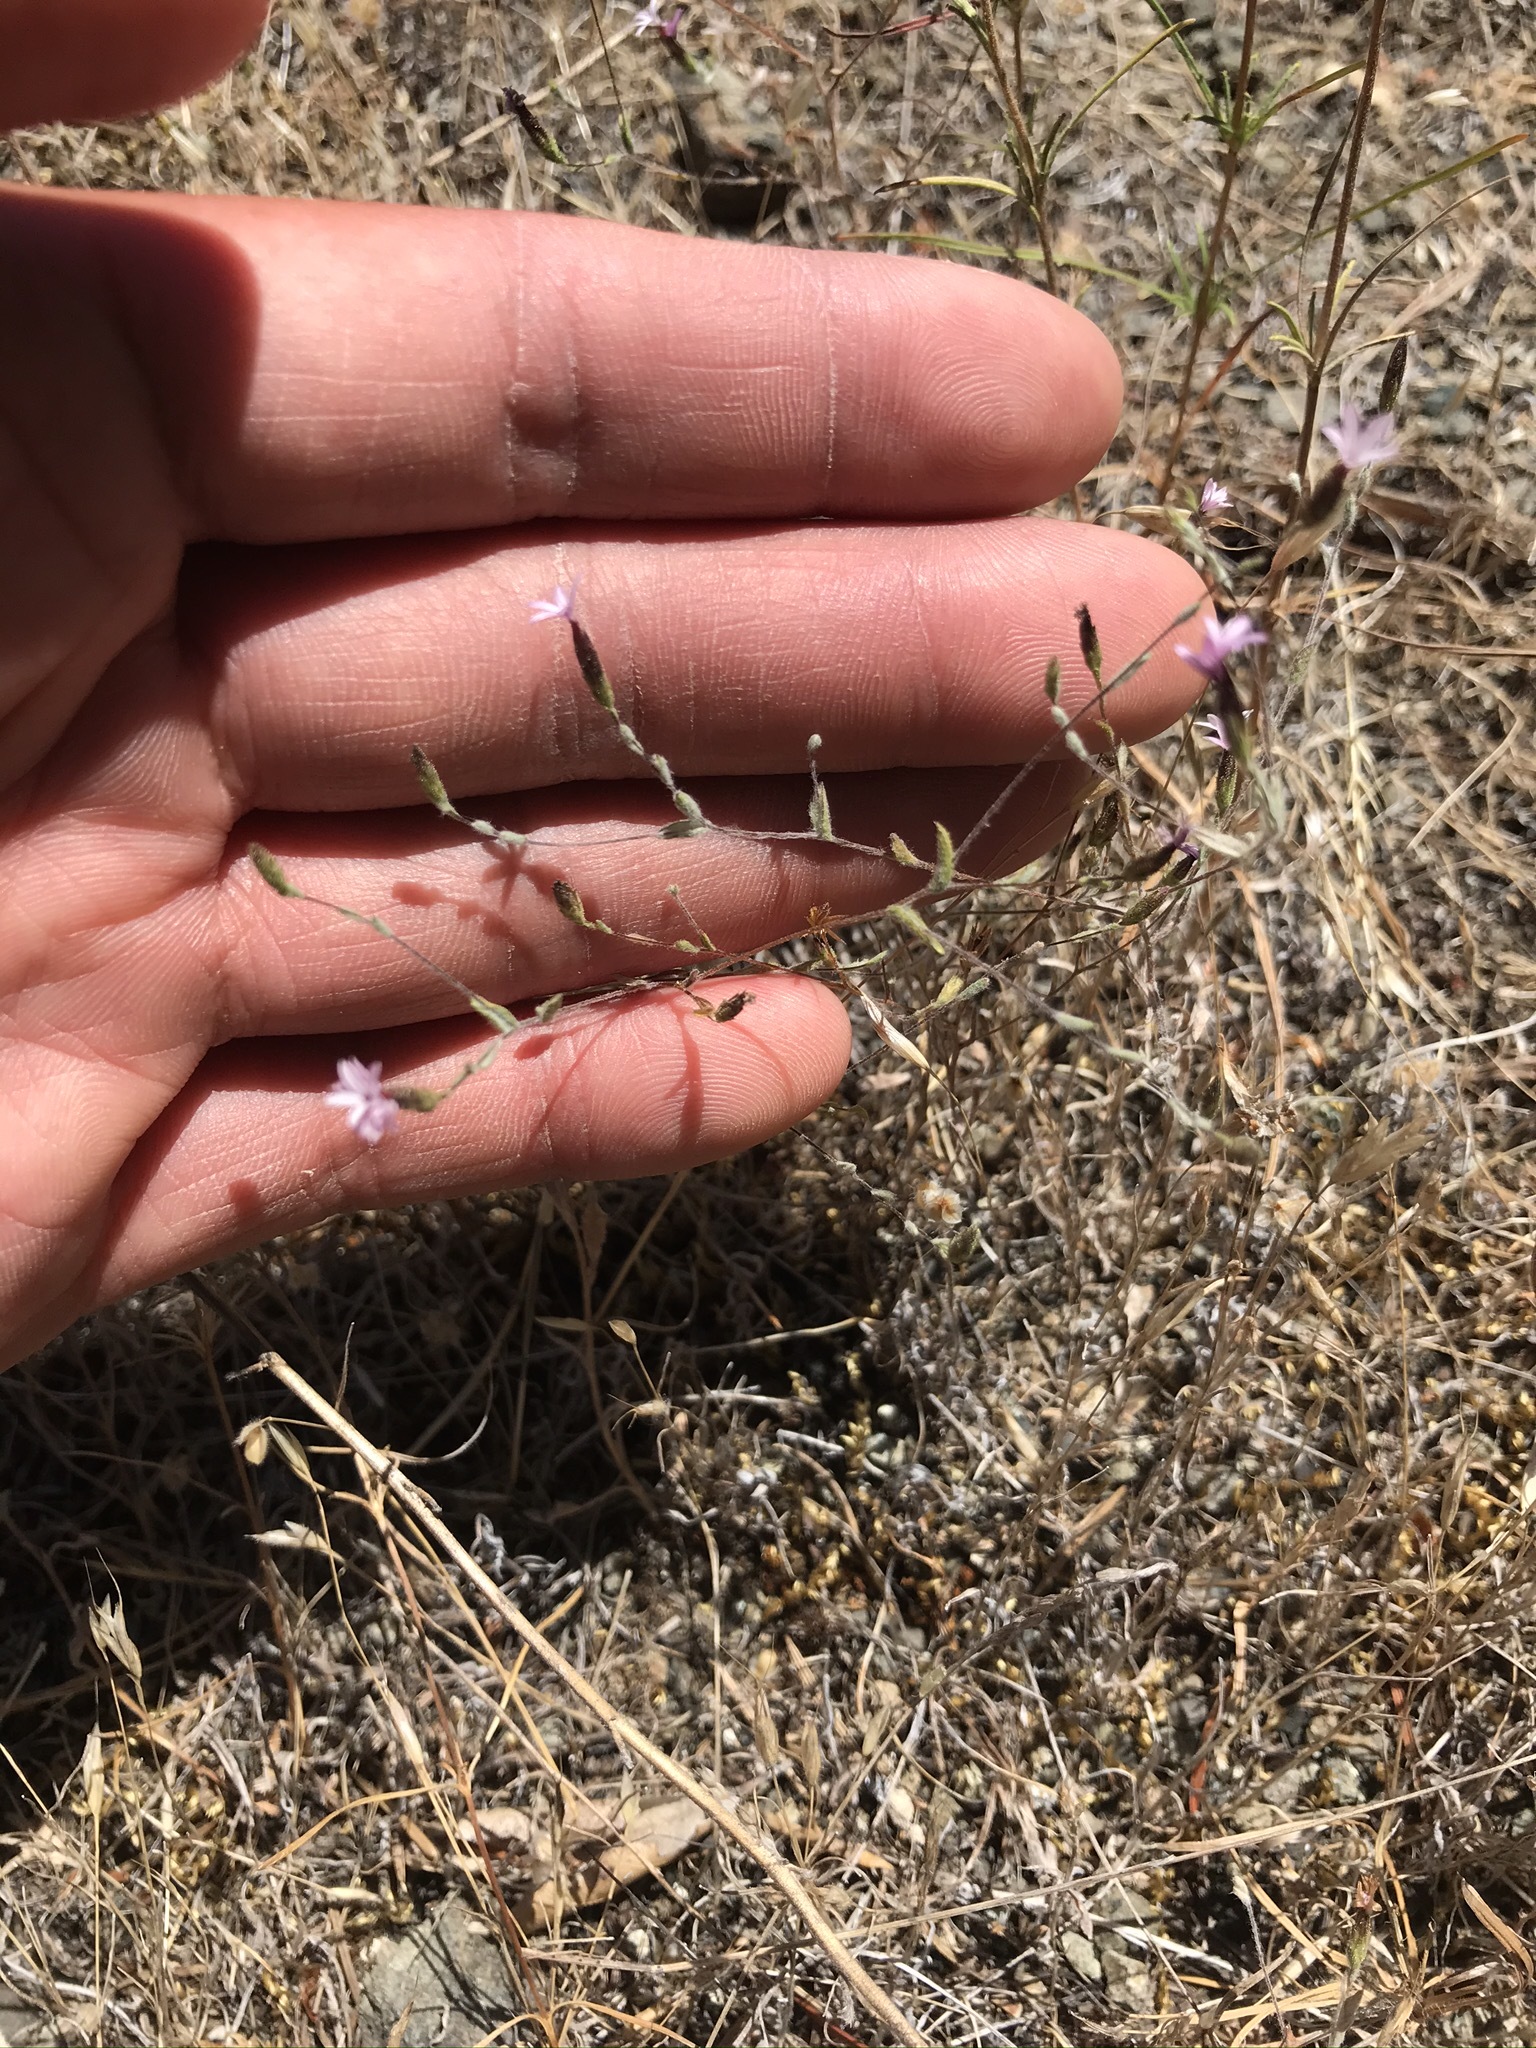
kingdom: Plantae
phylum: Tracheophyta
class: Magnoliopsida
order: Asterales
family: Asteraceae
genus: Lessingia
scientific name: Lessingia micradenia
